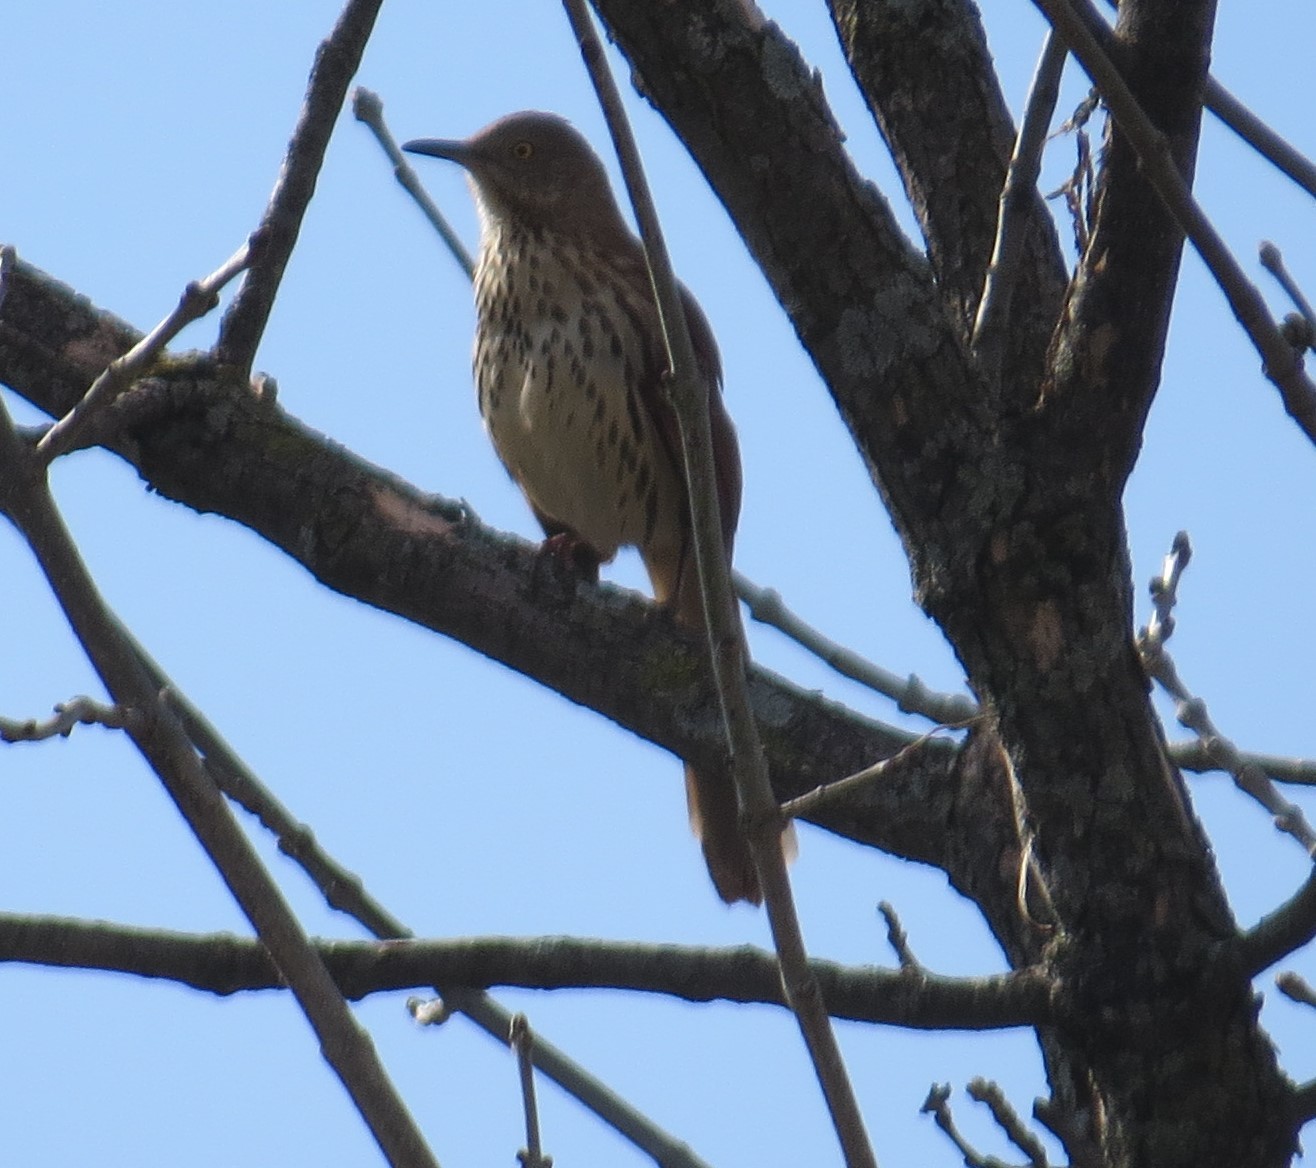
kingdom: Animalia
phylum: Chordata
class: Aves
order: Passeriformes
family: Mimidae
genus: Toxostoma
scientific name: Toxostoma rufum
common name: Brown thrasher
